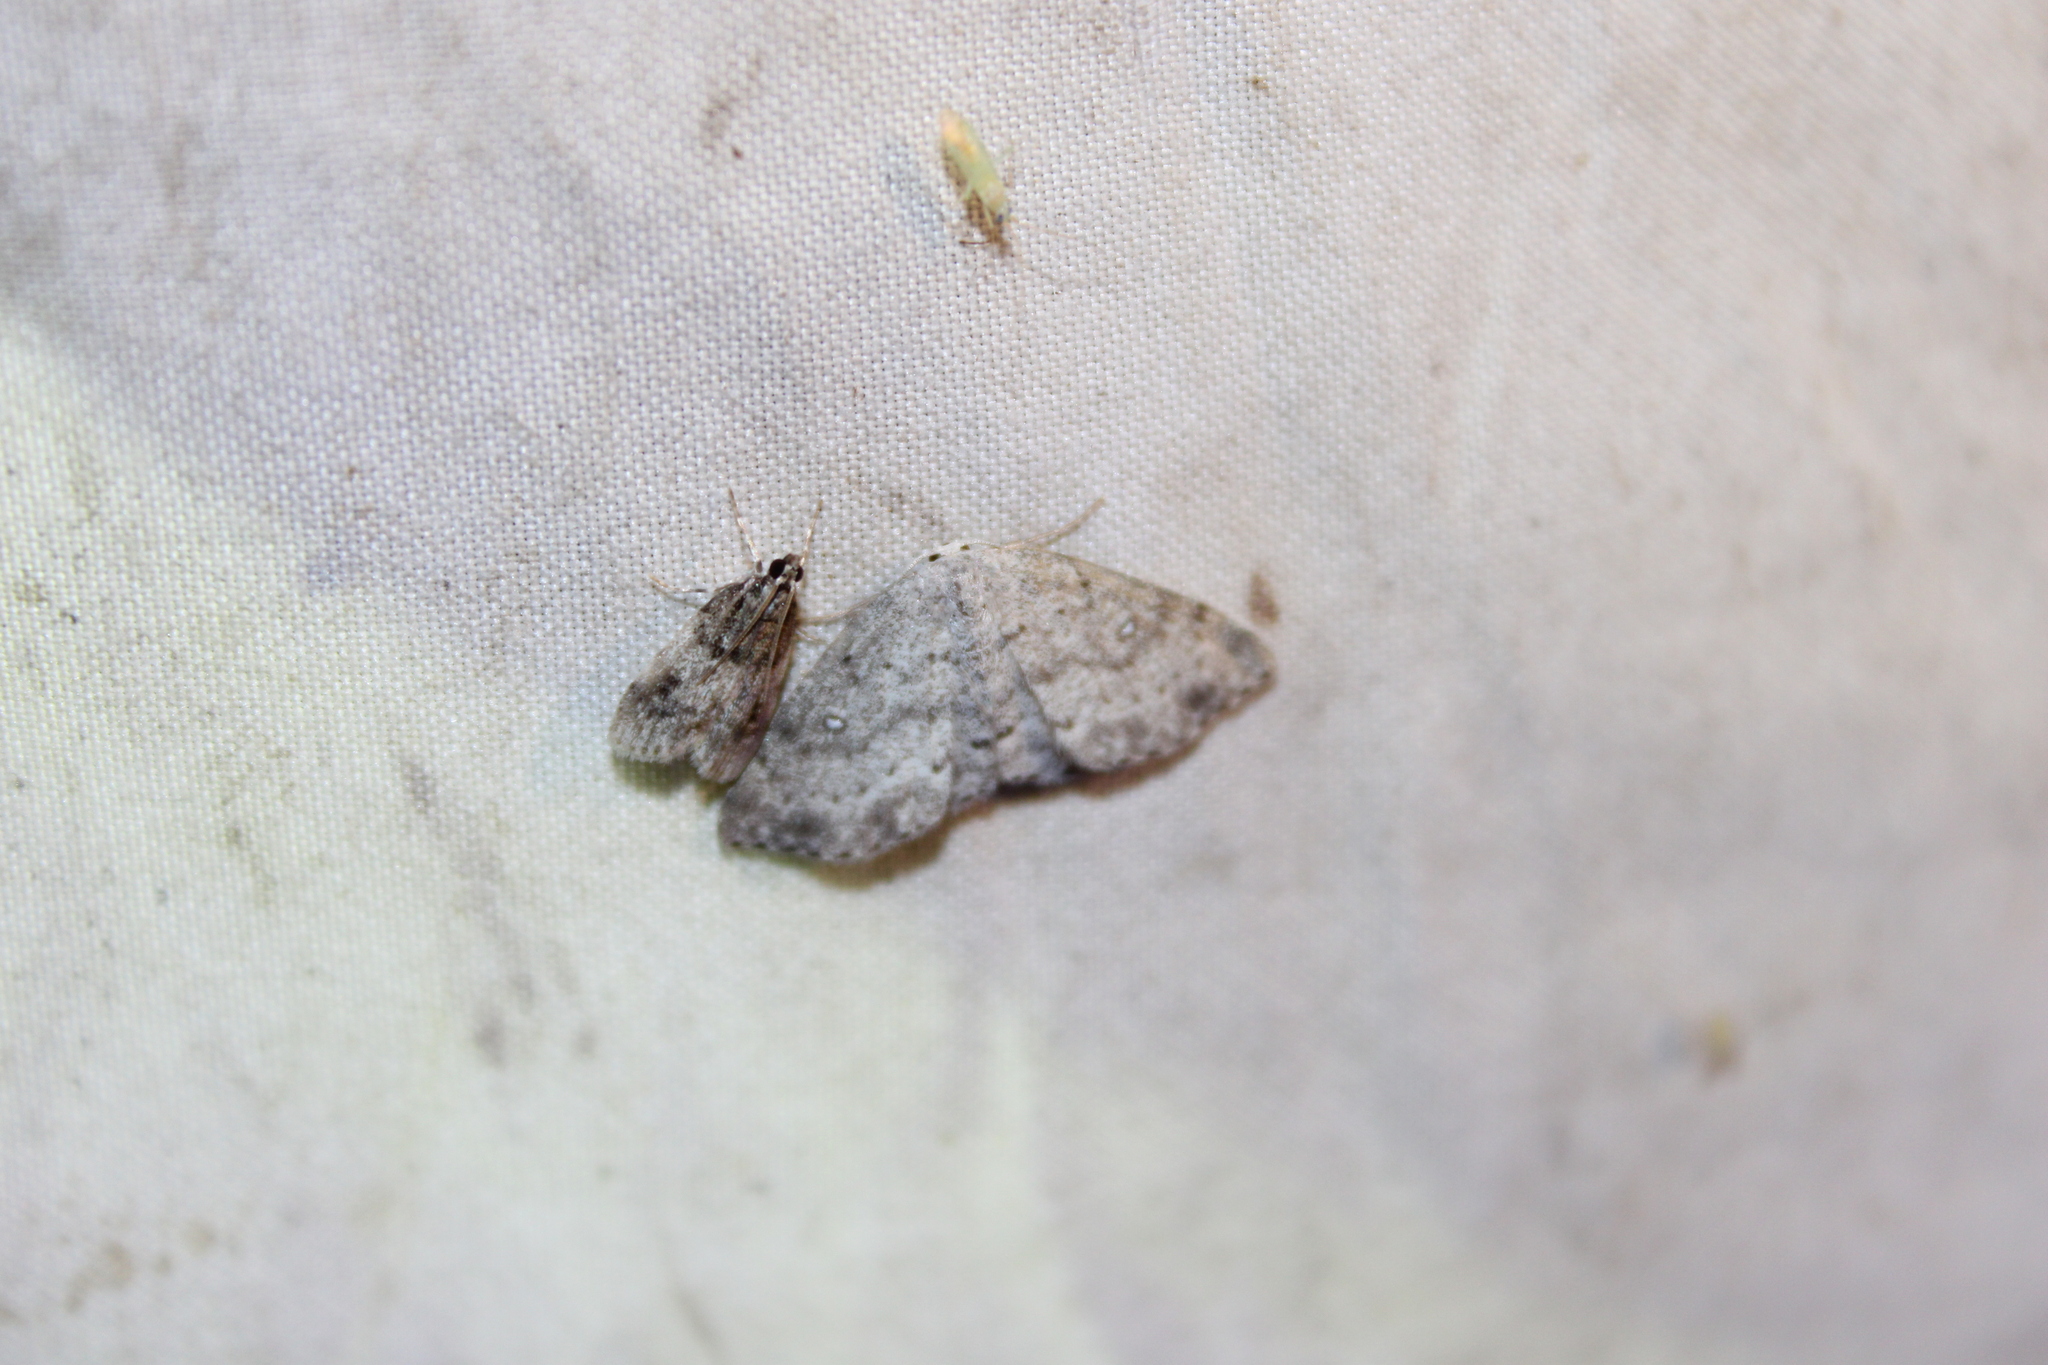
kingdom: Animalia
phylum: Arthropoda
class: Insecta
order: Lepidoptera
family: Geometridae
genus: Cyclophora
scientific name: Cyclophora pendulinaria
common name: Sweet fern geometer
